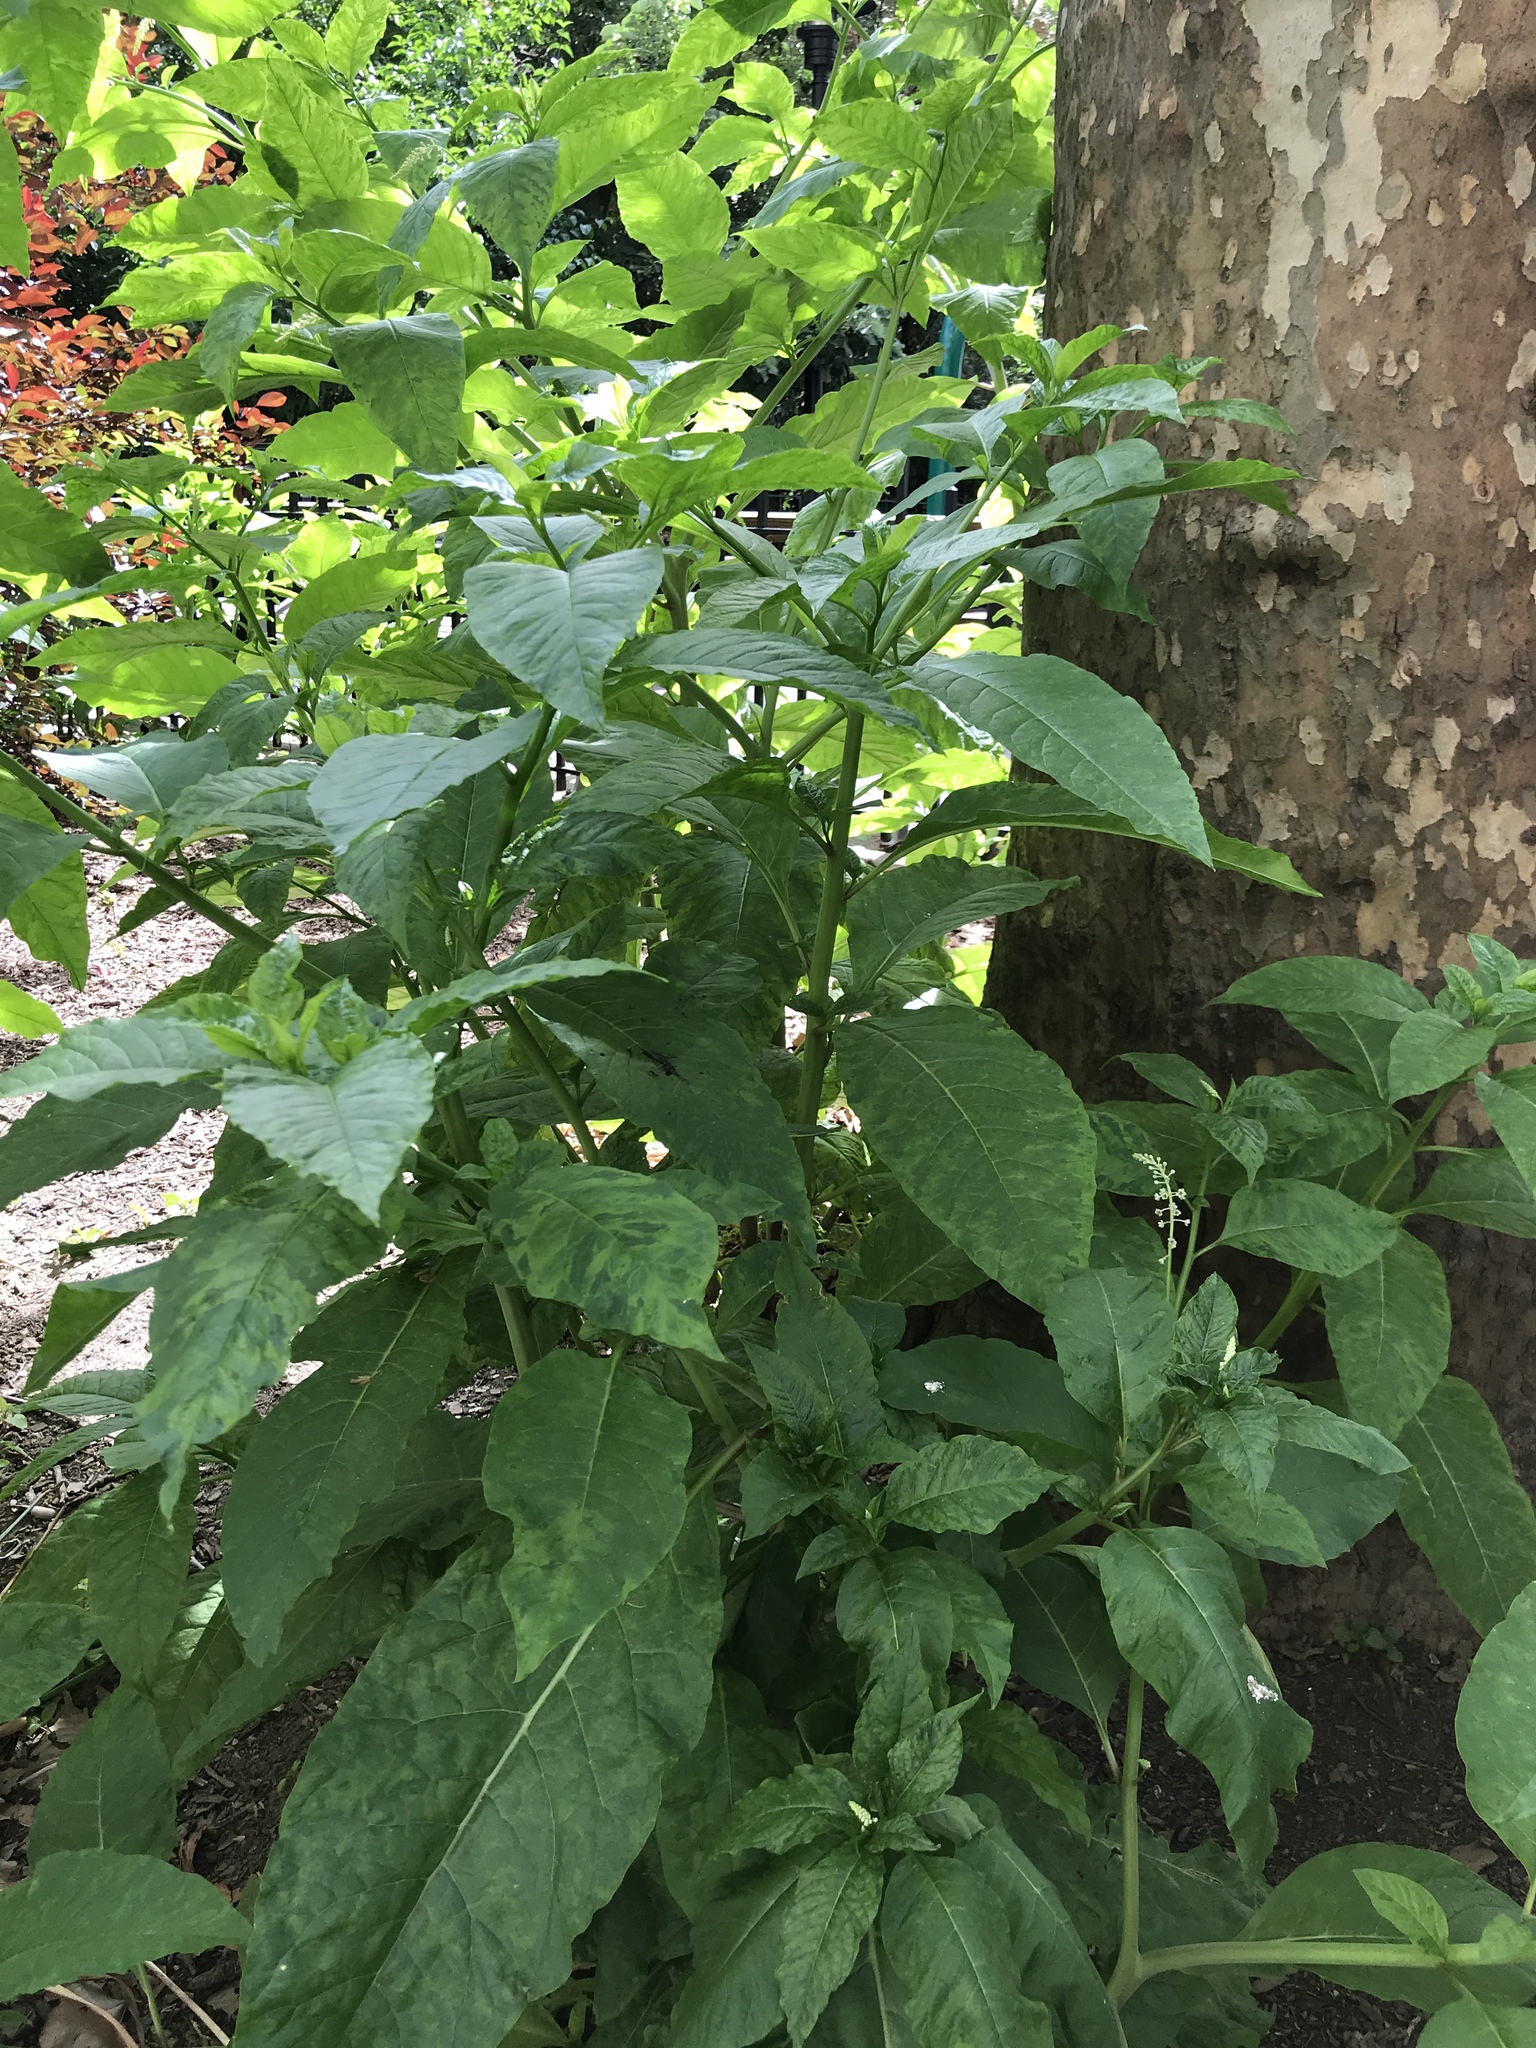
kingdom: Plantae
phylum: Tracheophyta
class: Magnoliopsida
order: Caryophyllales
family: Phytolaccaceae
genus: Phytolacca
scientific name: Phytolacca americana
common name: American pokeweed
